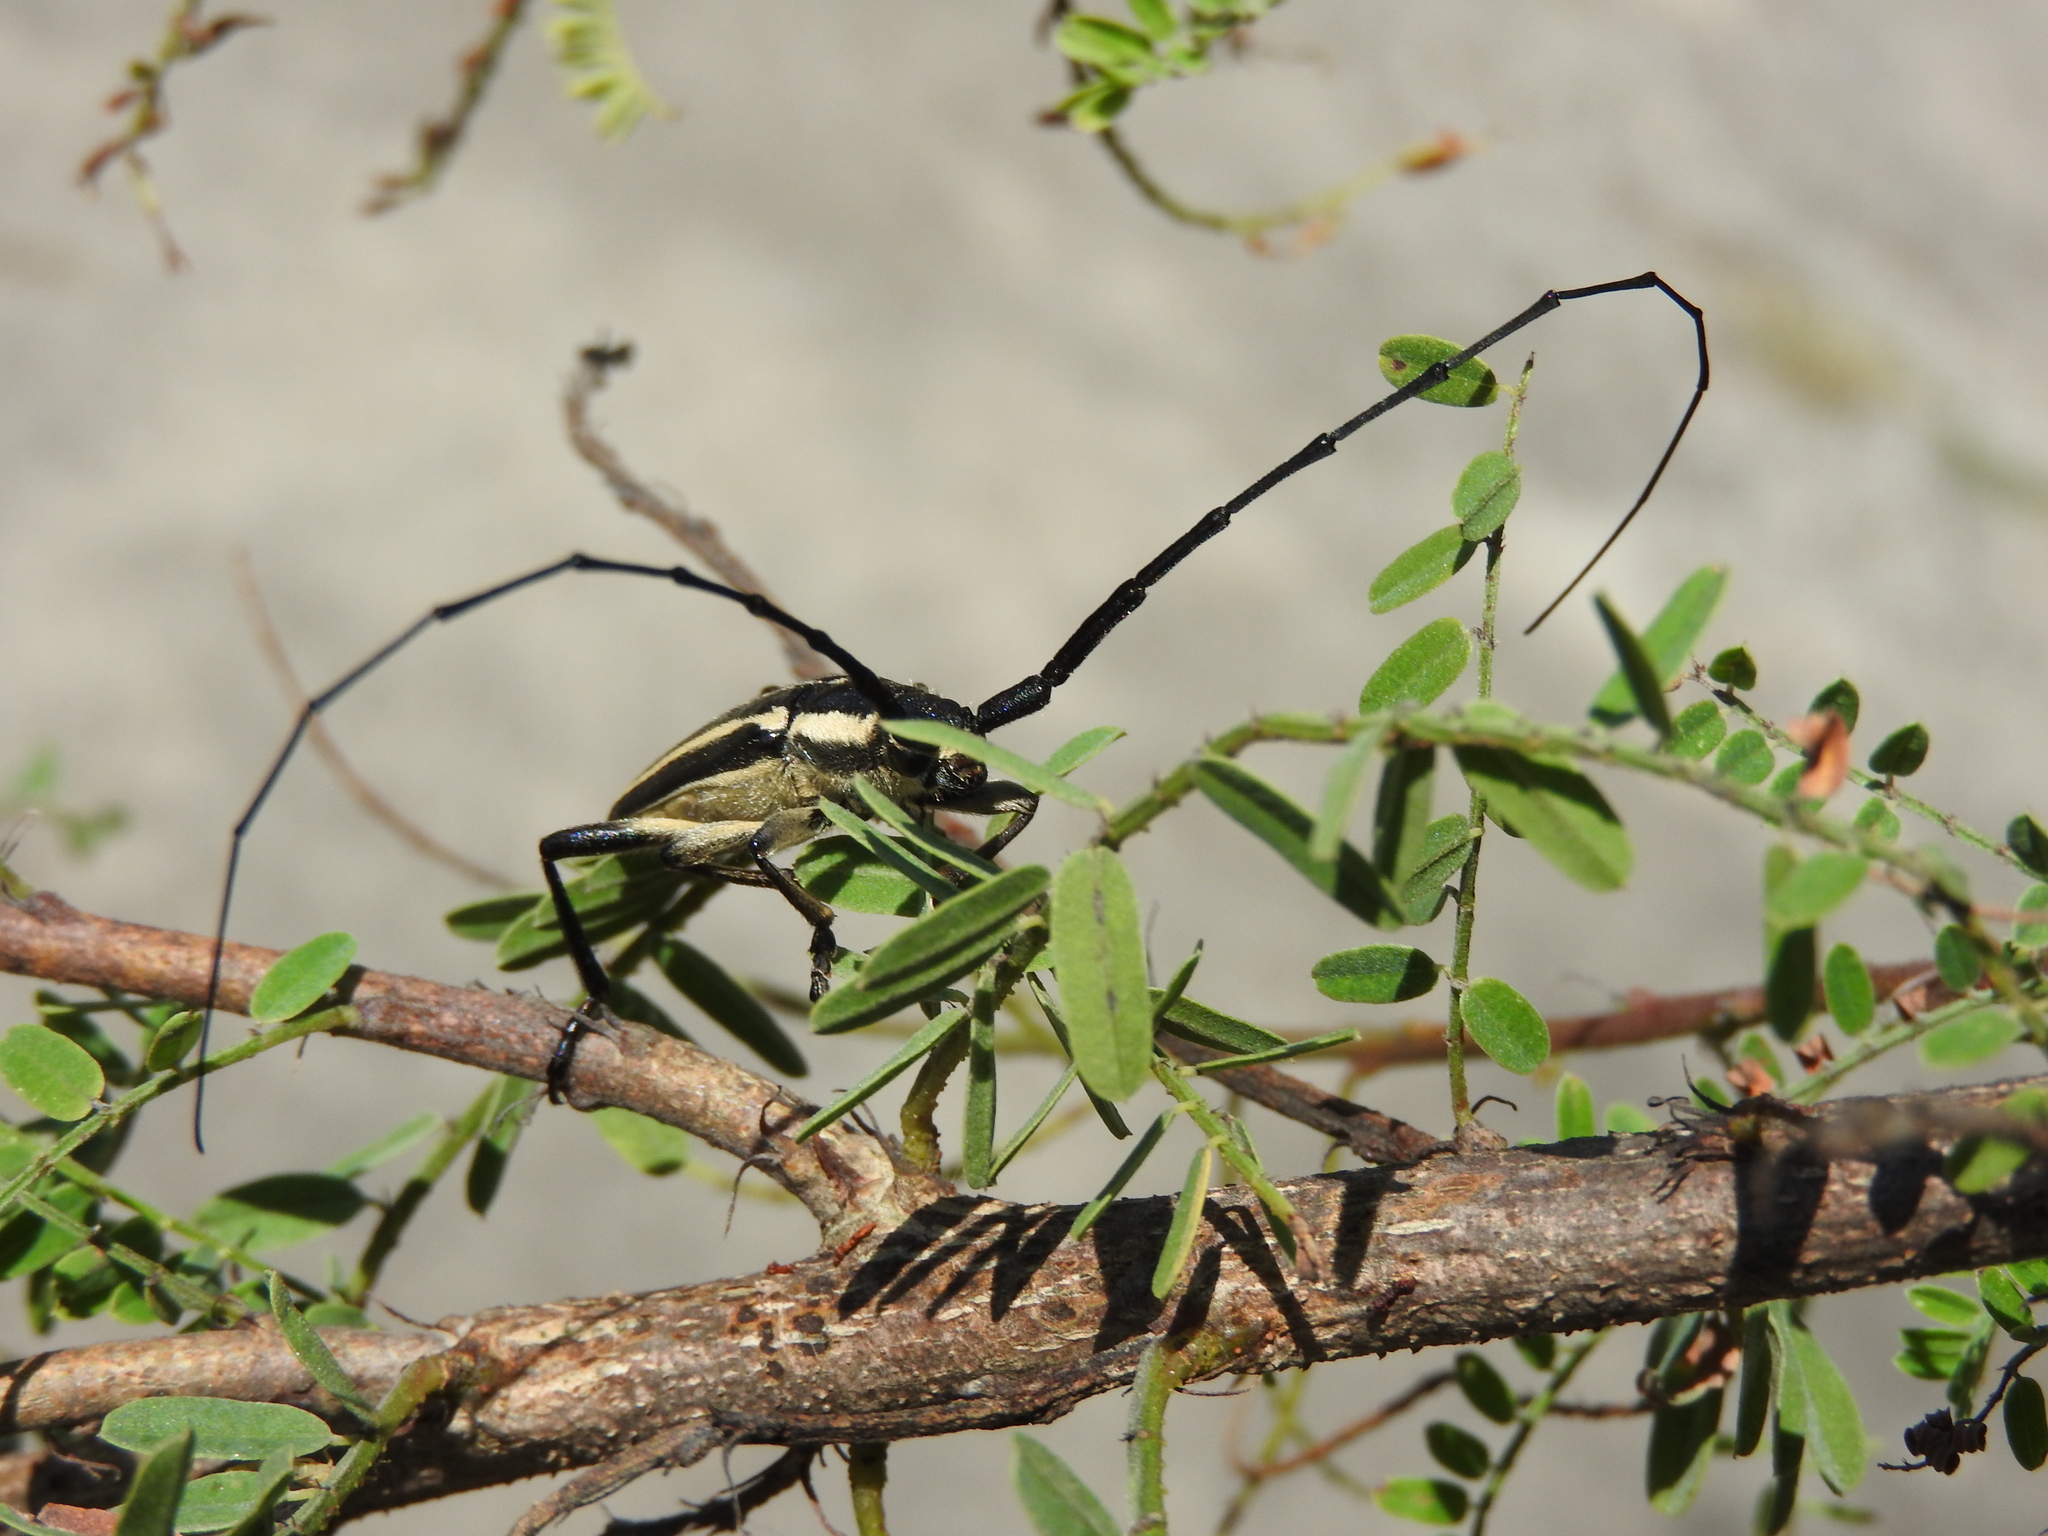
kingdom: Animalia
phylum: Arthropoda
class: Insecta
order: Coleoptera
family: Cerambycidae
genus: Sphaenothecus
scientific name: Sphaenothecus trilineatus
